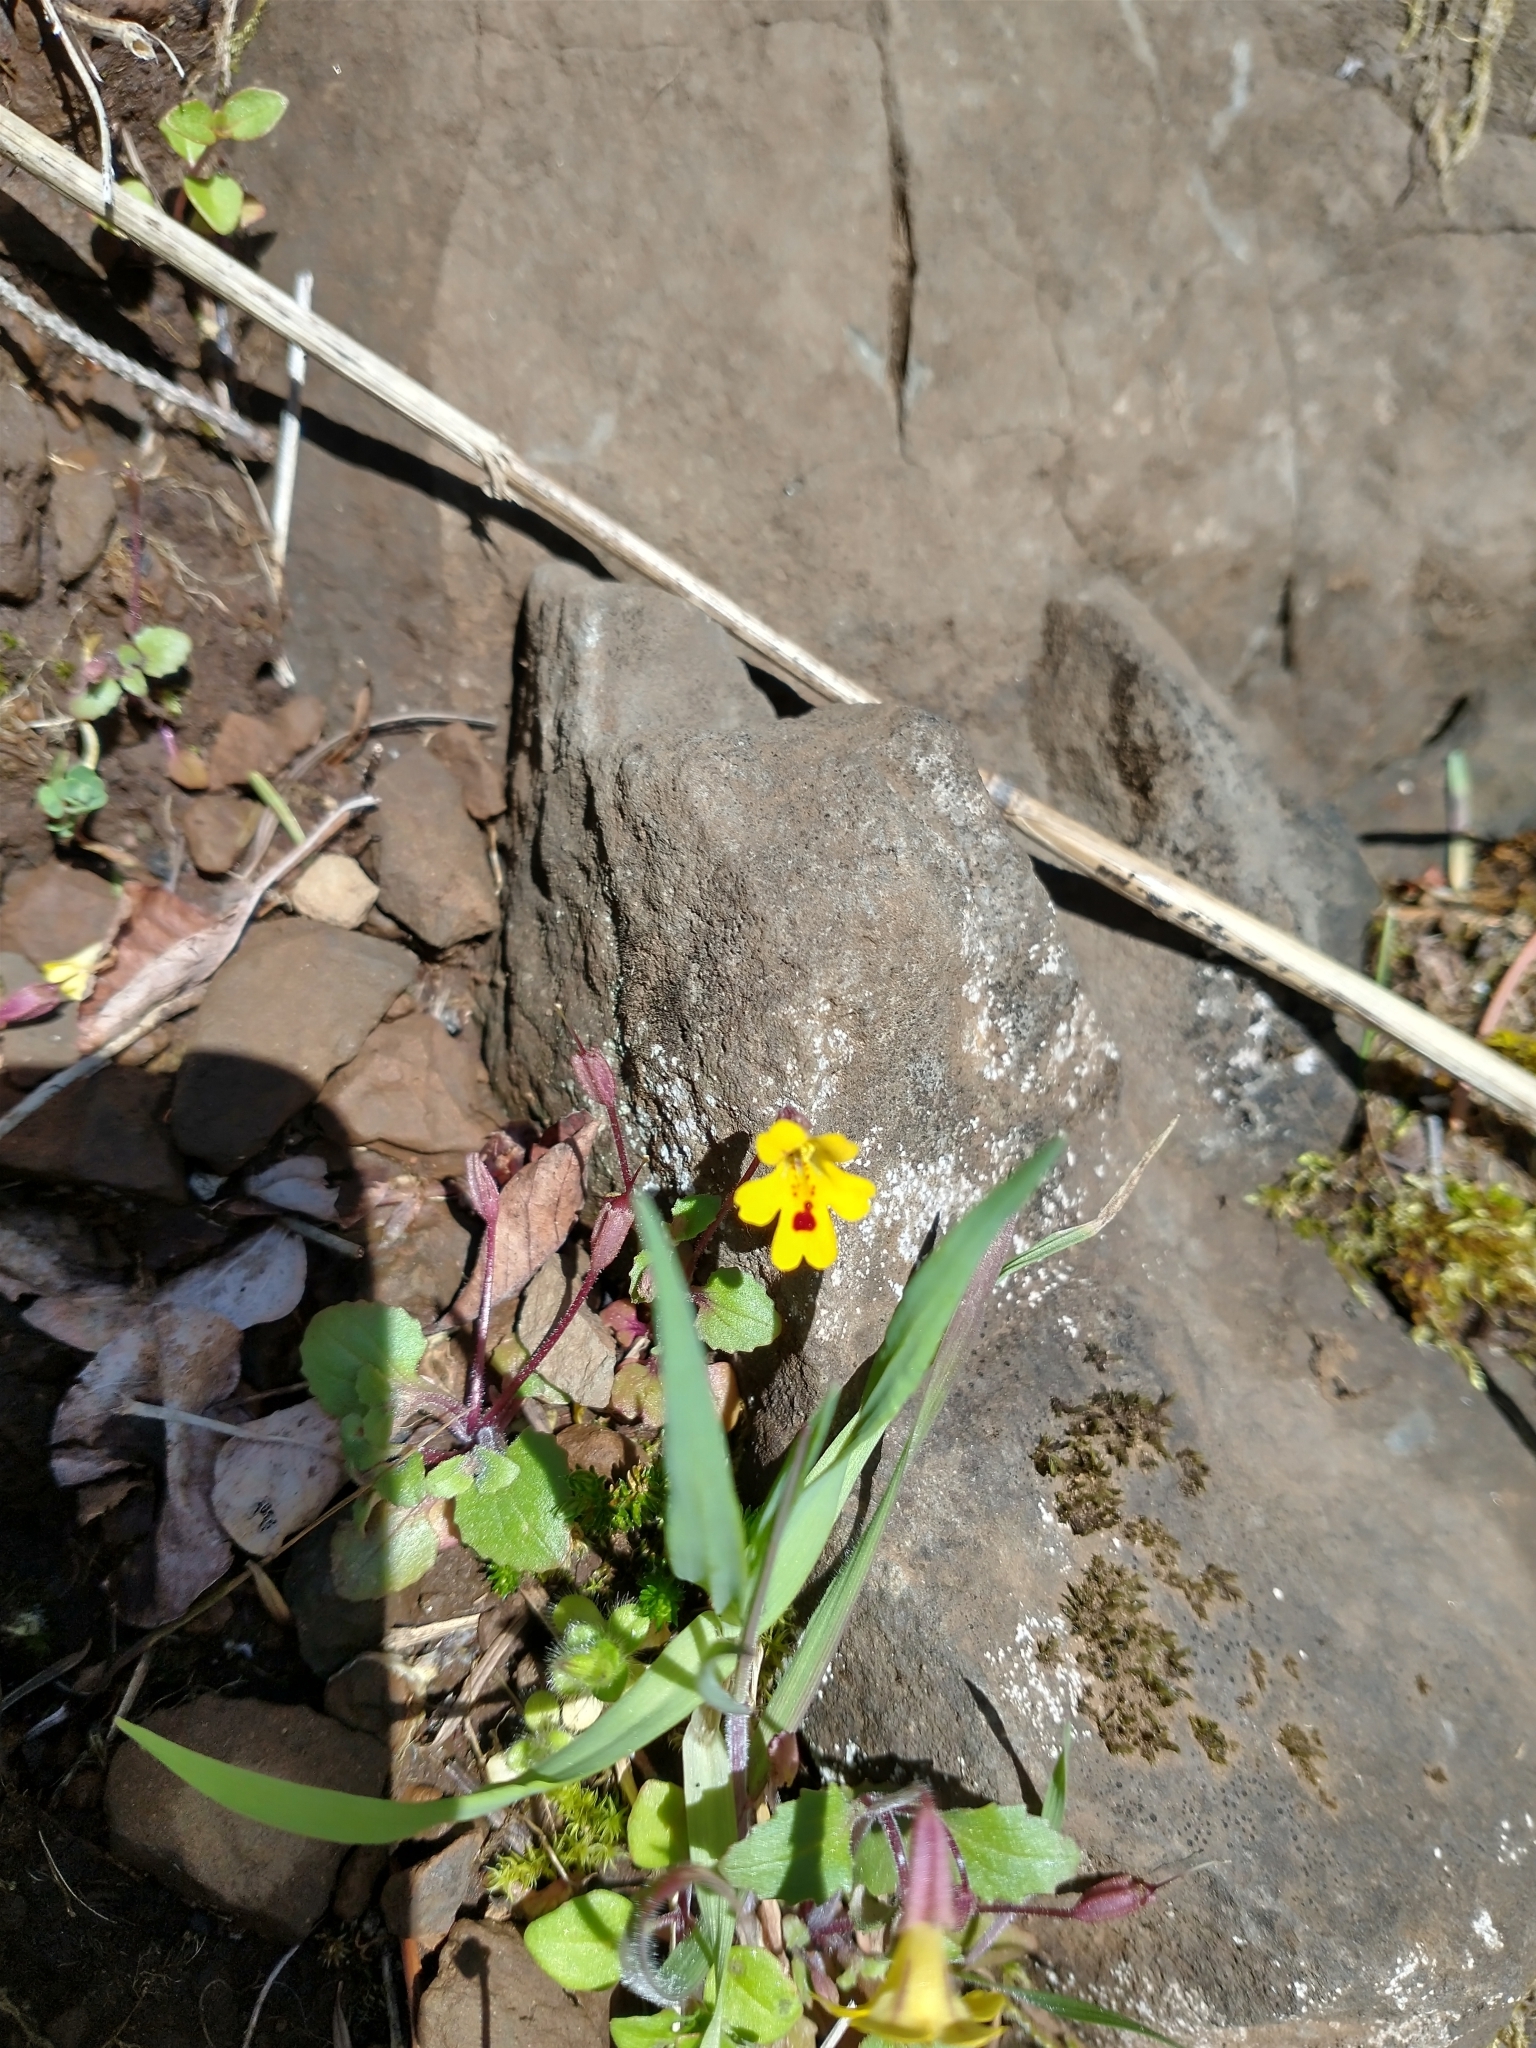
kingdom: Plantae
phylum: Tracheophyta
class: Magnoliopsida
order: Lamiales
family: Phrymaceae
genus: Erythranthe
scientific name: Erythranthe alsinoides
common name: Chickweed monkeyflower
